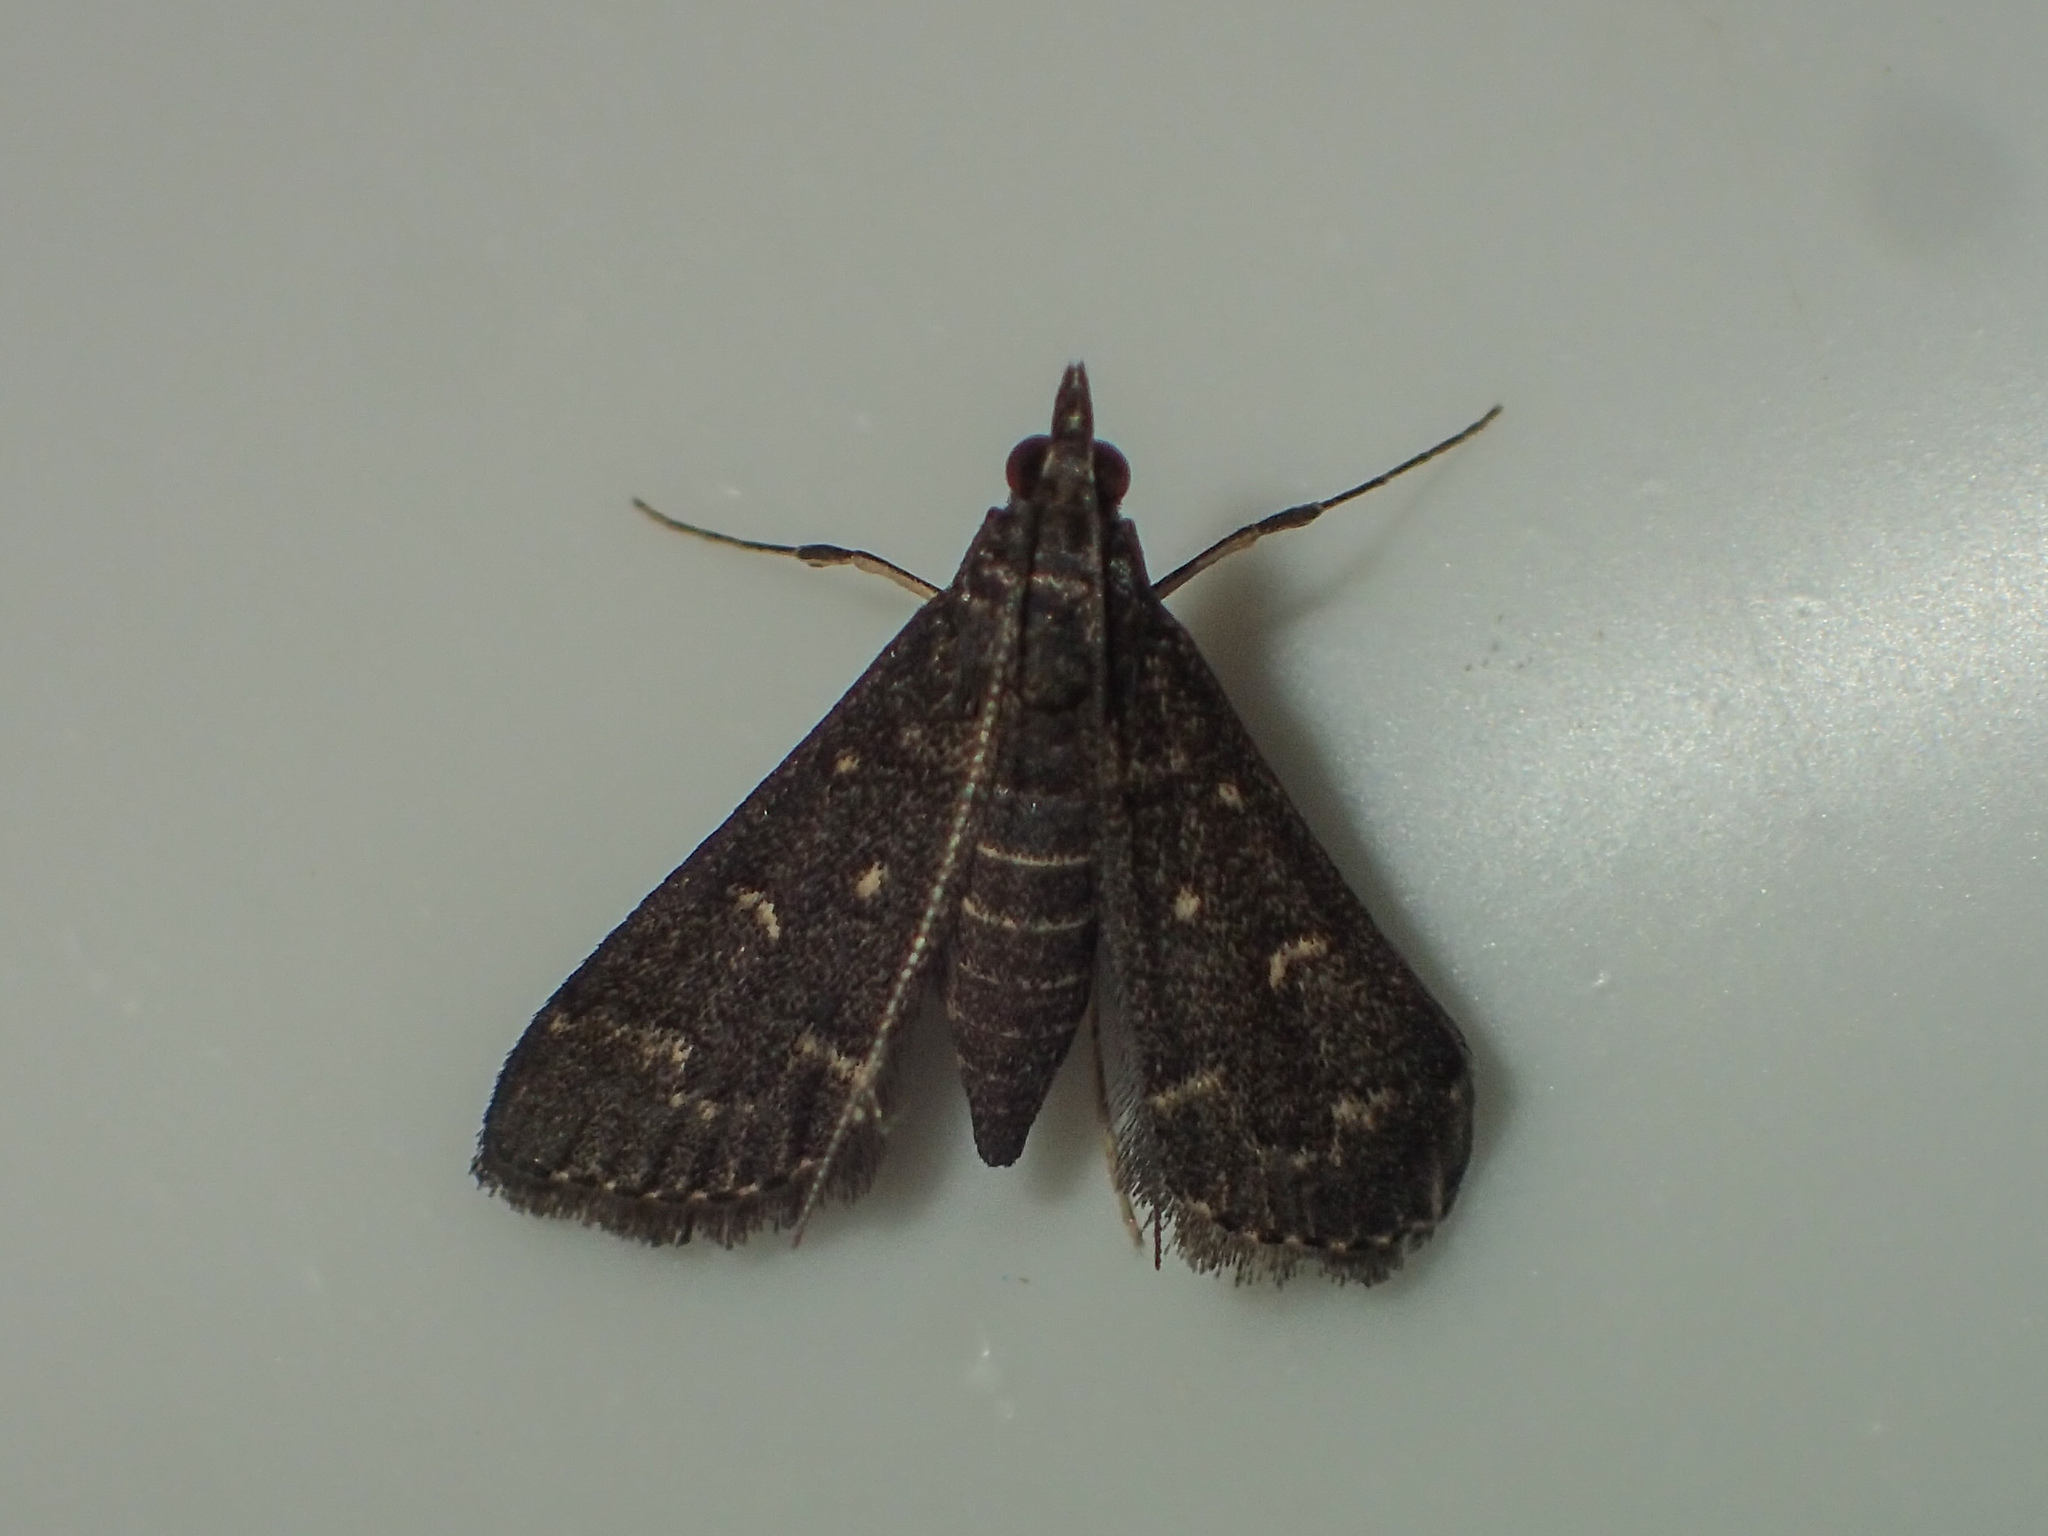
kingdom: Animalia
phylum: Arthropoda
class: Insecta
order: Lepidoptera
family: Crambidae
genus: Symmoracma
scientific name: Symmoracma minoralis
